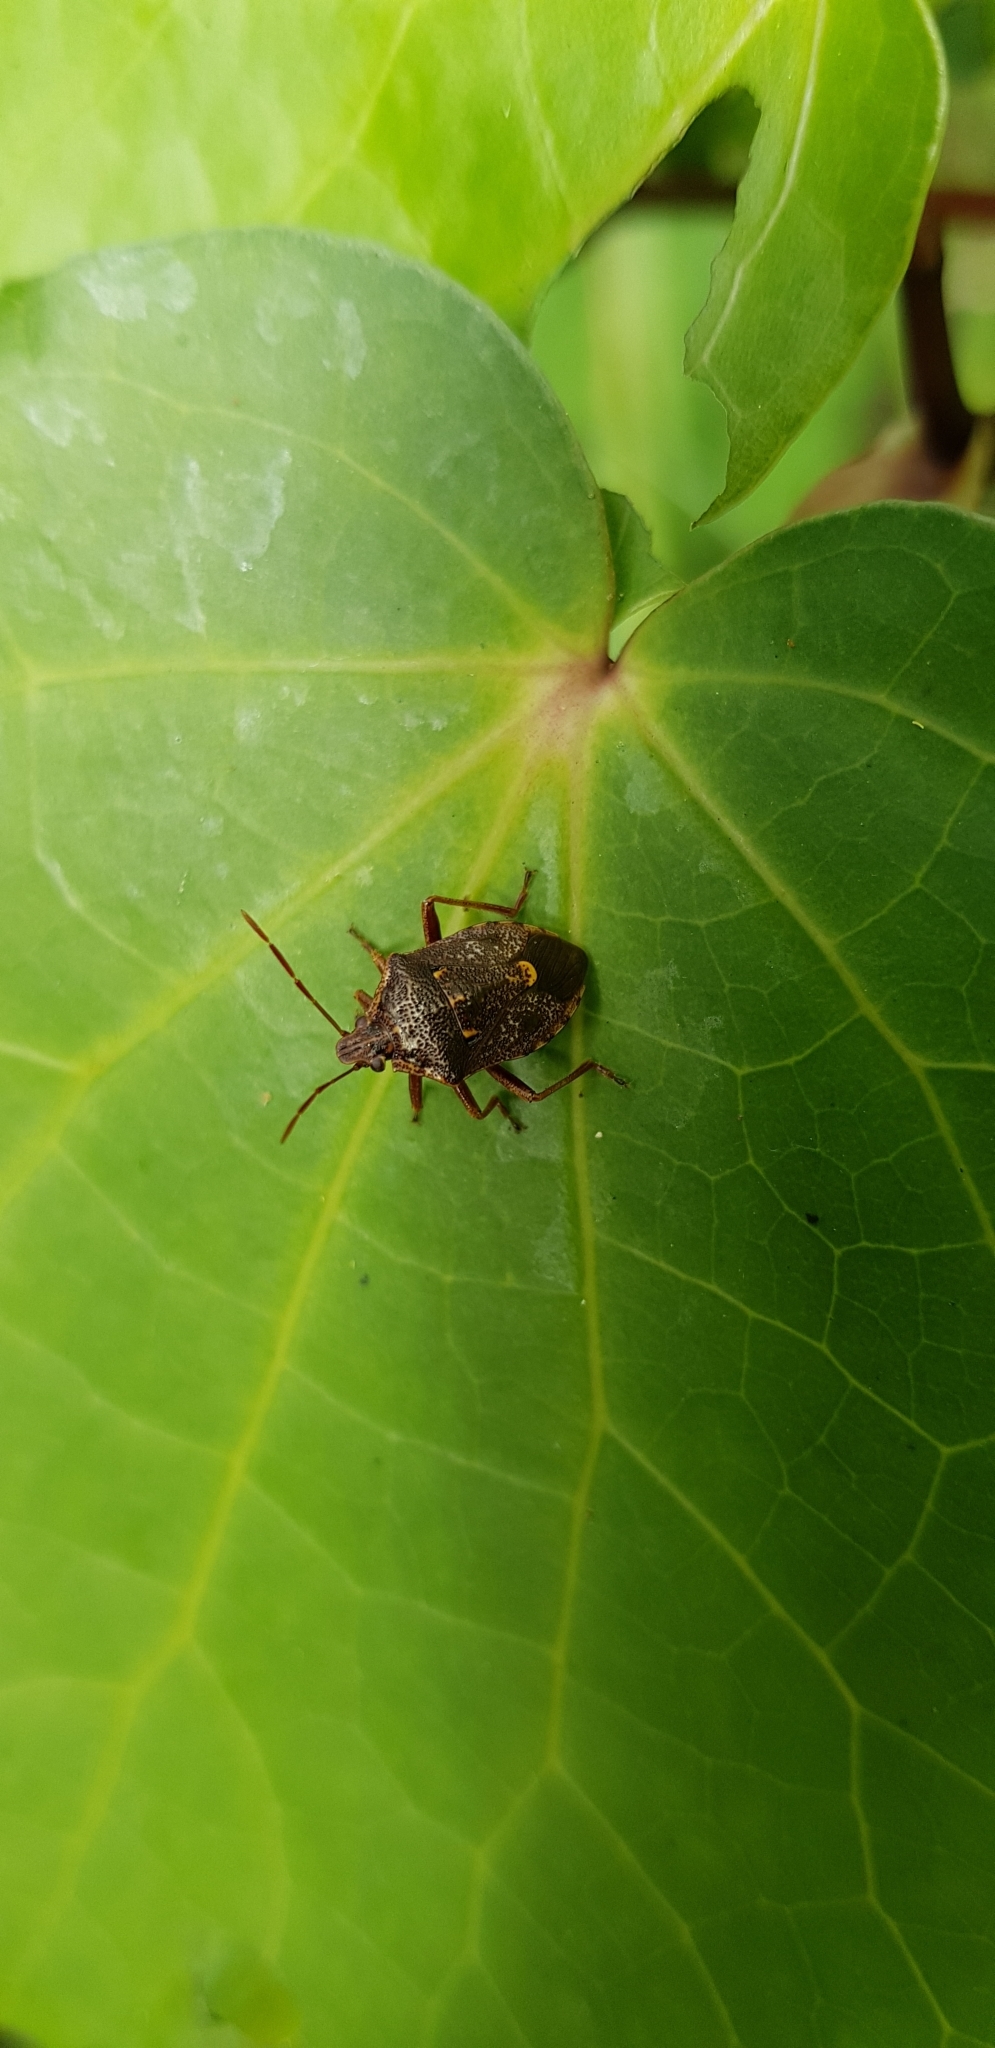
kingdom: Animalia
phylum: Arthropoda
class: Insecta
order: Hemiptera
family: Pentatomidae
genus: Cermatulus
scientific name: Cermatulus nasalis
